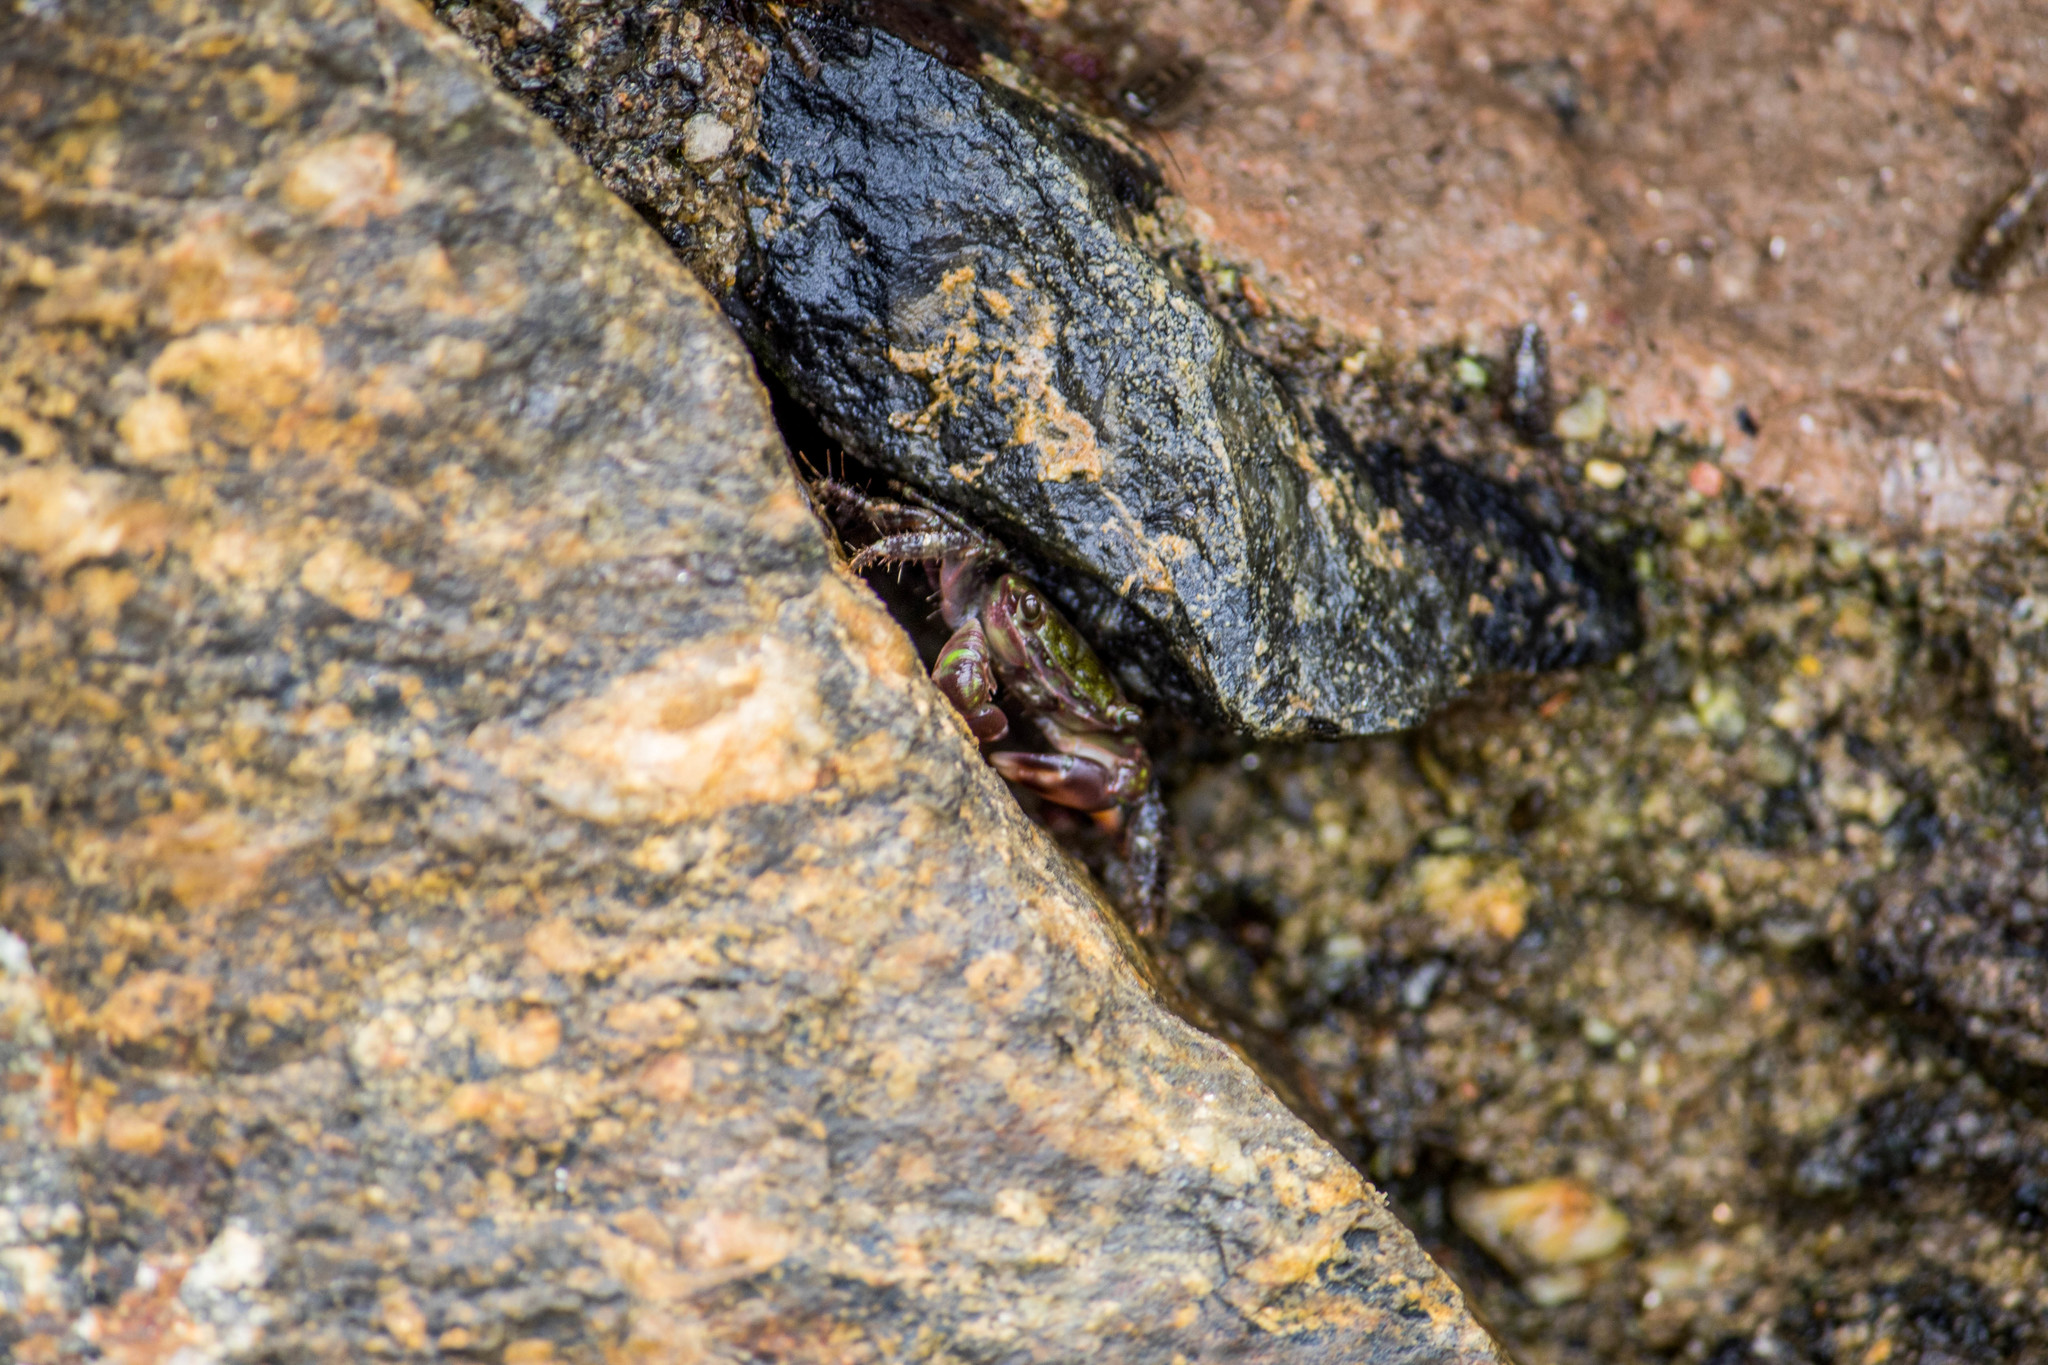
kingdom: Animalia
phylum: Arthropoda
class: Malacostraca
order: Decapoda
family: Grapsidae
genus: Pachygrapsus
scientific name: Pachygrapsus transversus
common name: Mottled shore crab
